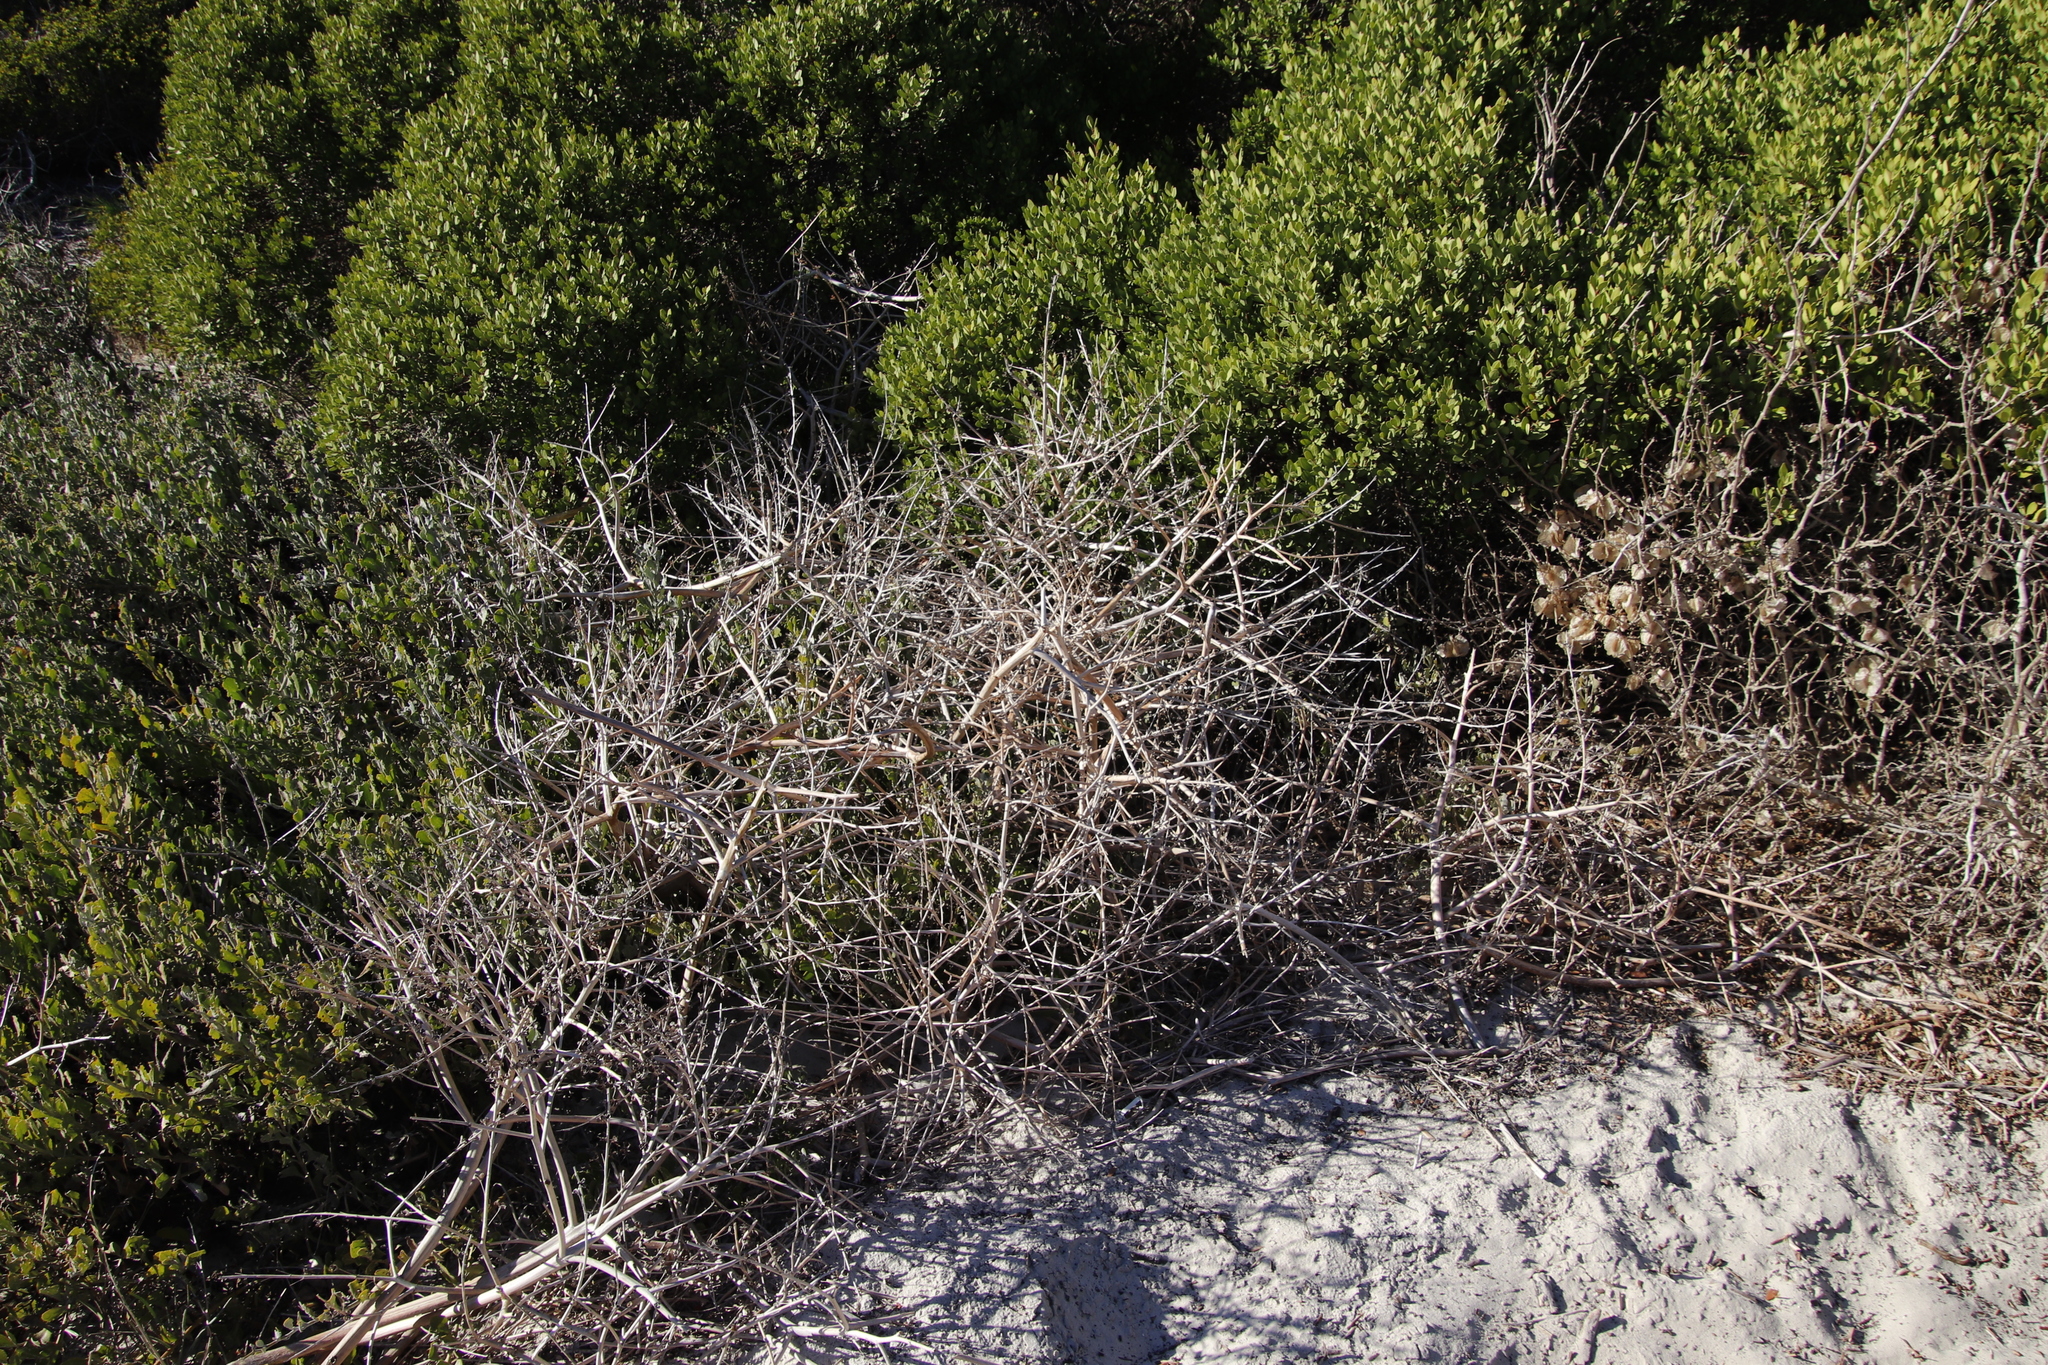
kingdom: Plantae
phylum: Tracheophyta
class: Liliopsida
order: Asparagales
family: Asphodelaceae
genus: Trachyandra
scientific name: Trachyandra divaricata
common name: Dune onionweed
